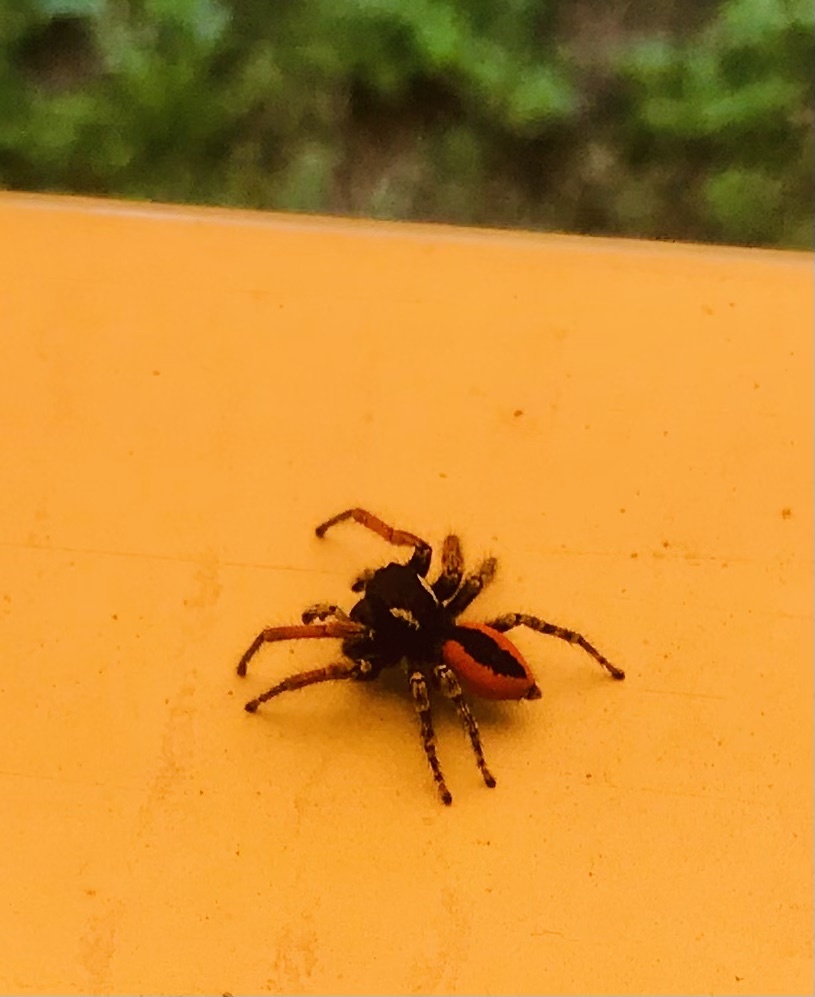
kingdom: Animalia
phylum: Arthropoda
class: Arachnida
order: Araneae
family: Salticidae
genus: Philaeus
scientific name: Philaeus chrysops
